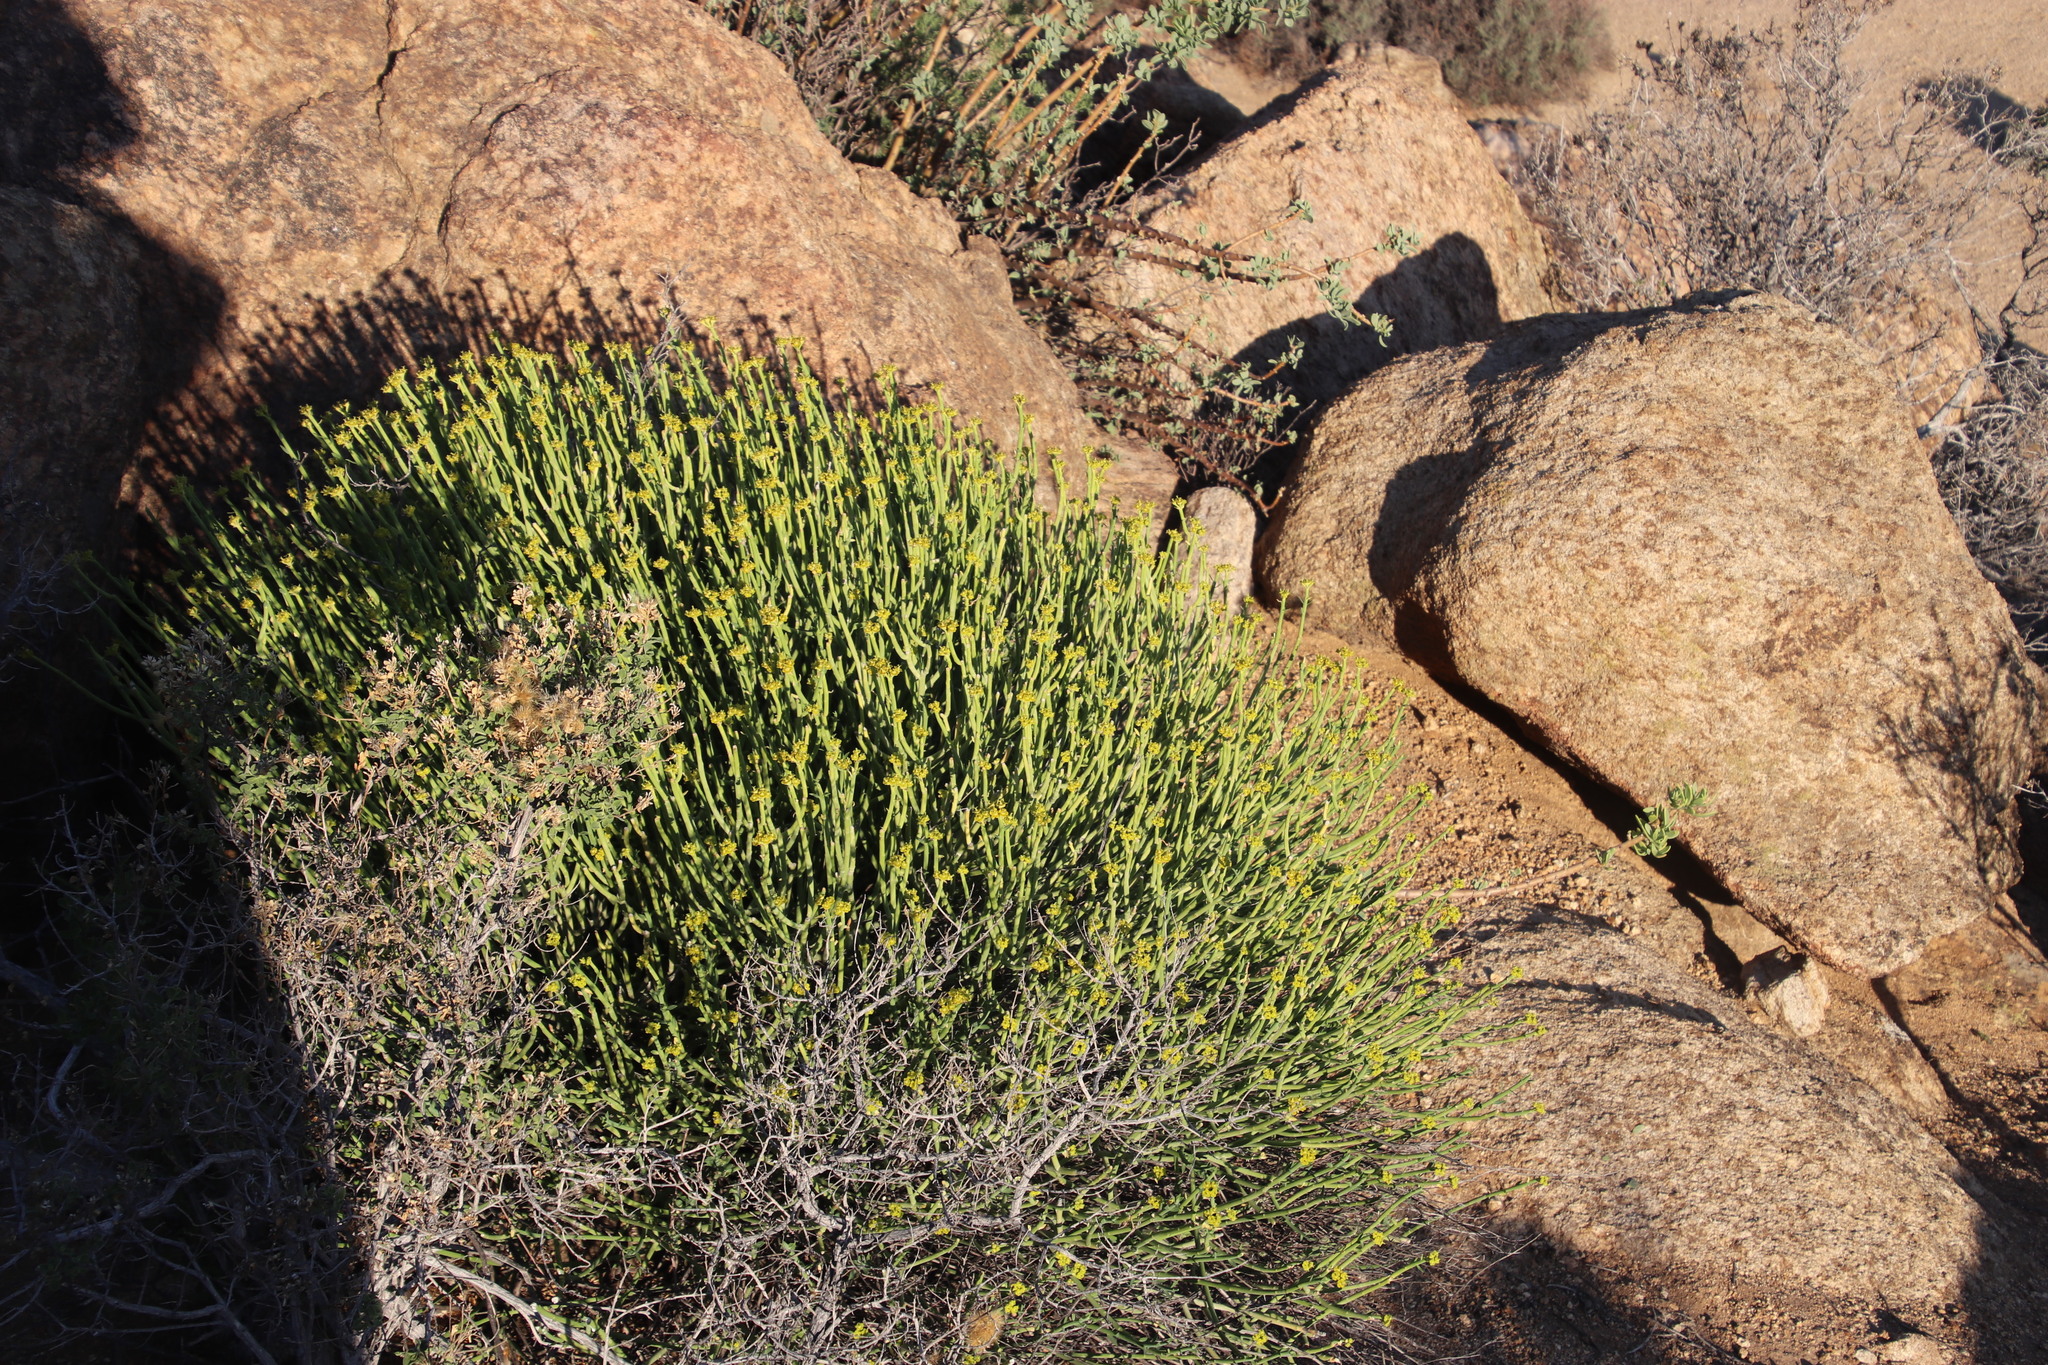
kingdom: Plantae
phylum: Tracheophyta
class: Magnoliopsida
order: Malpighiales
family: Euphorbiaceae
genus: Euphorbia
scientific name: Euphorbia mauritanica
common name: Jackal's-food
